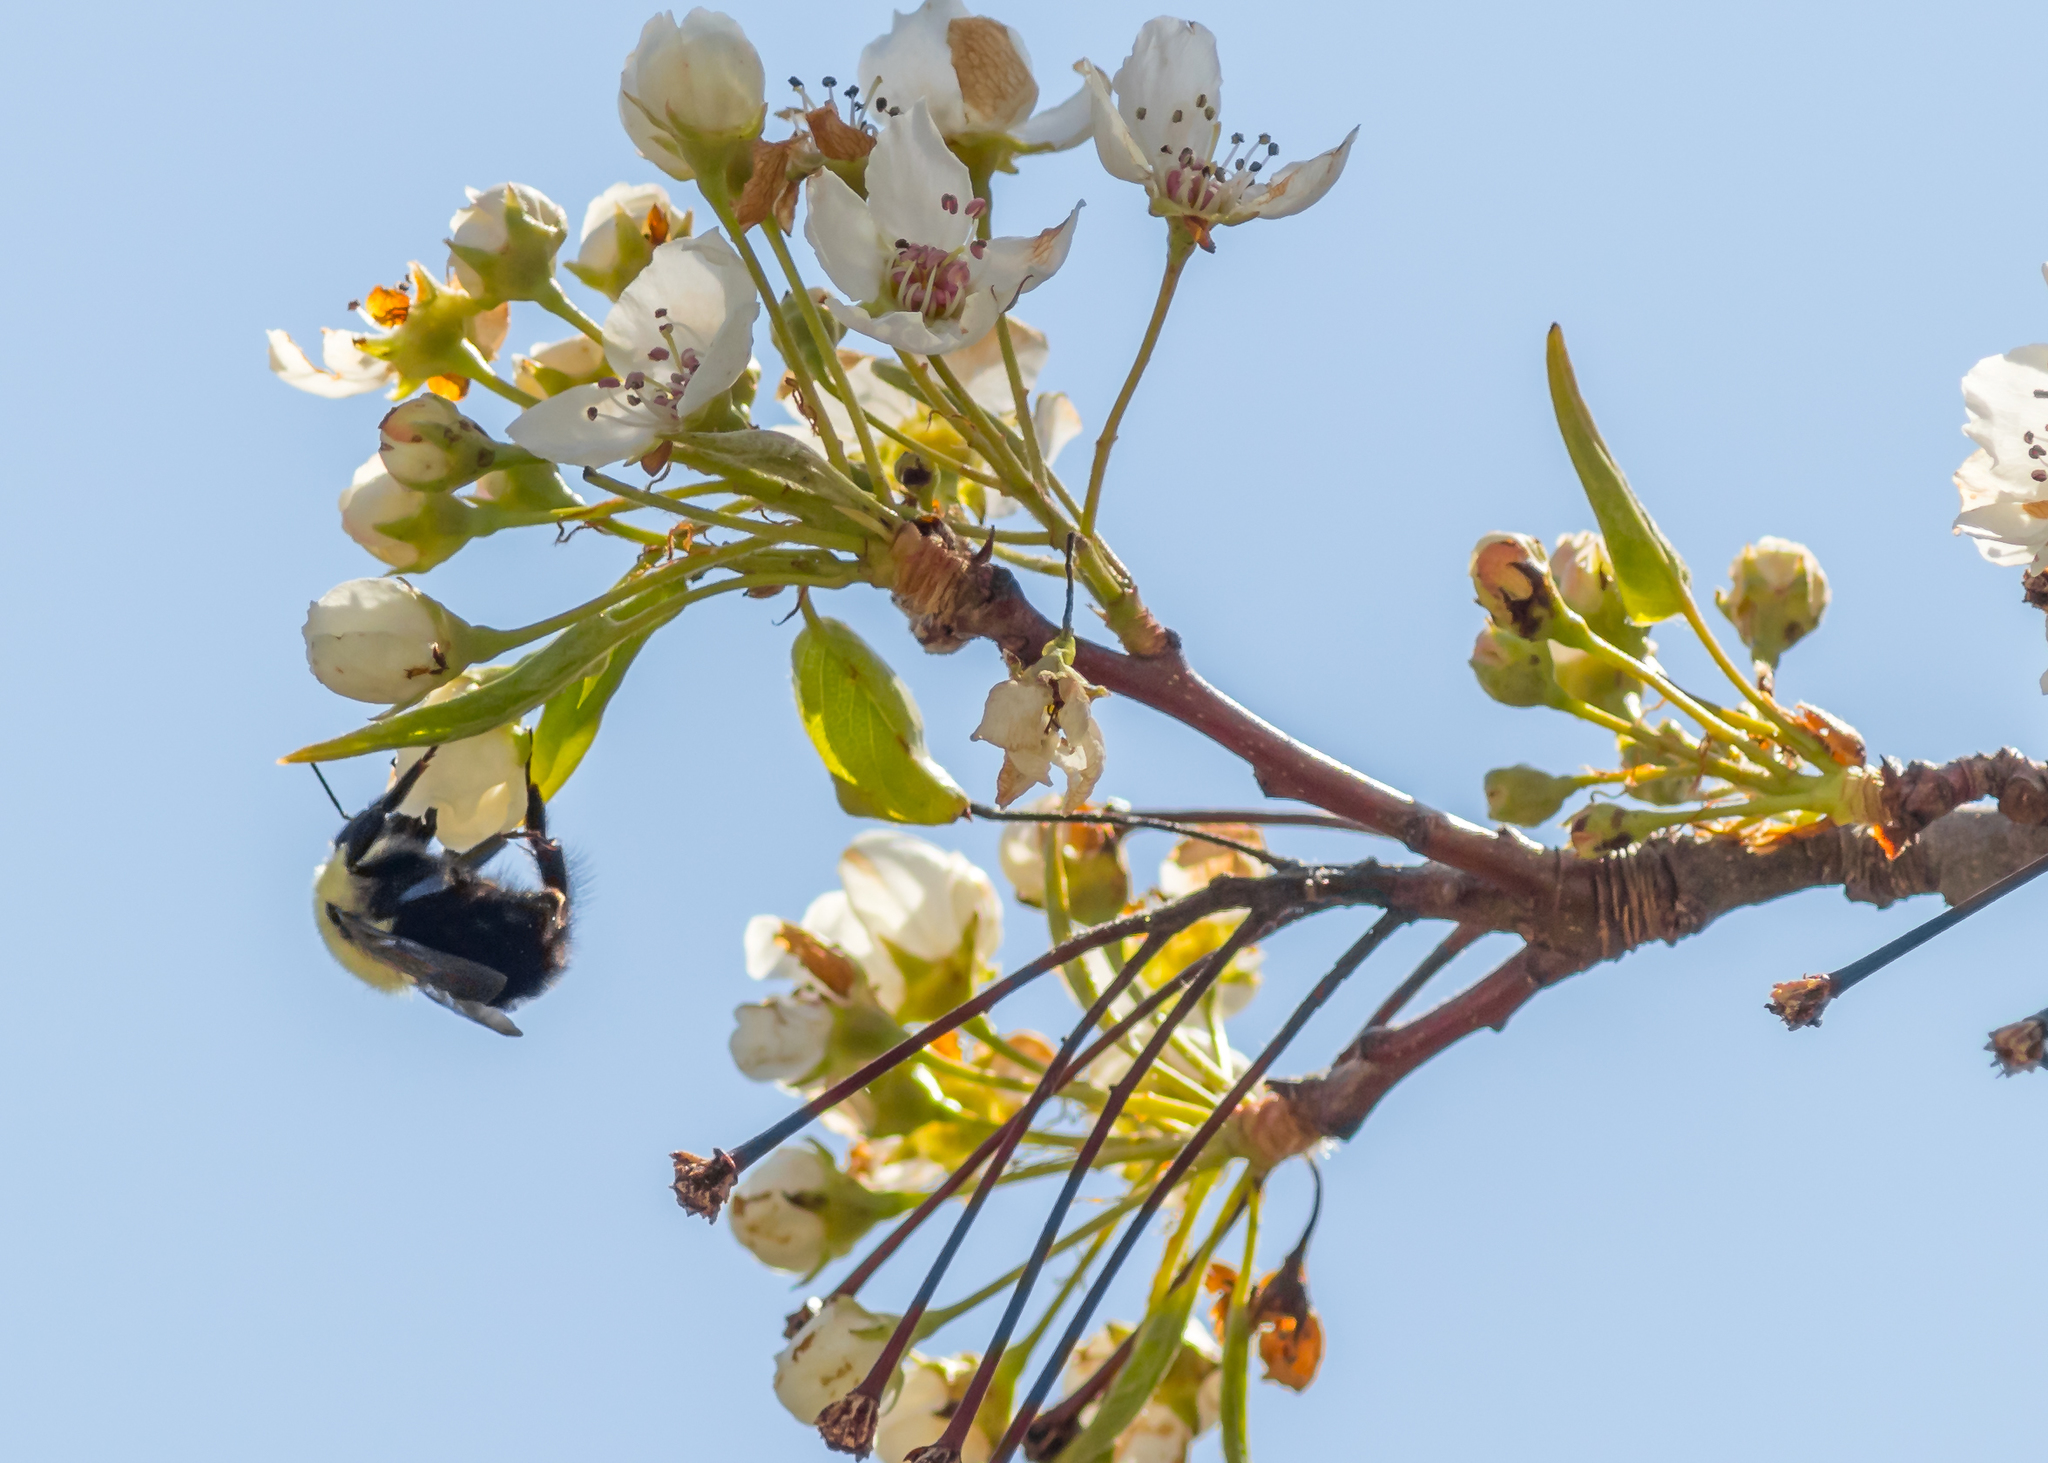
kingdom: Animalia
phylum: Arthropoda
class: Insecta
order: Hymenoptera
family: Apidae
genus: Bombus
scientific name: Bombus
